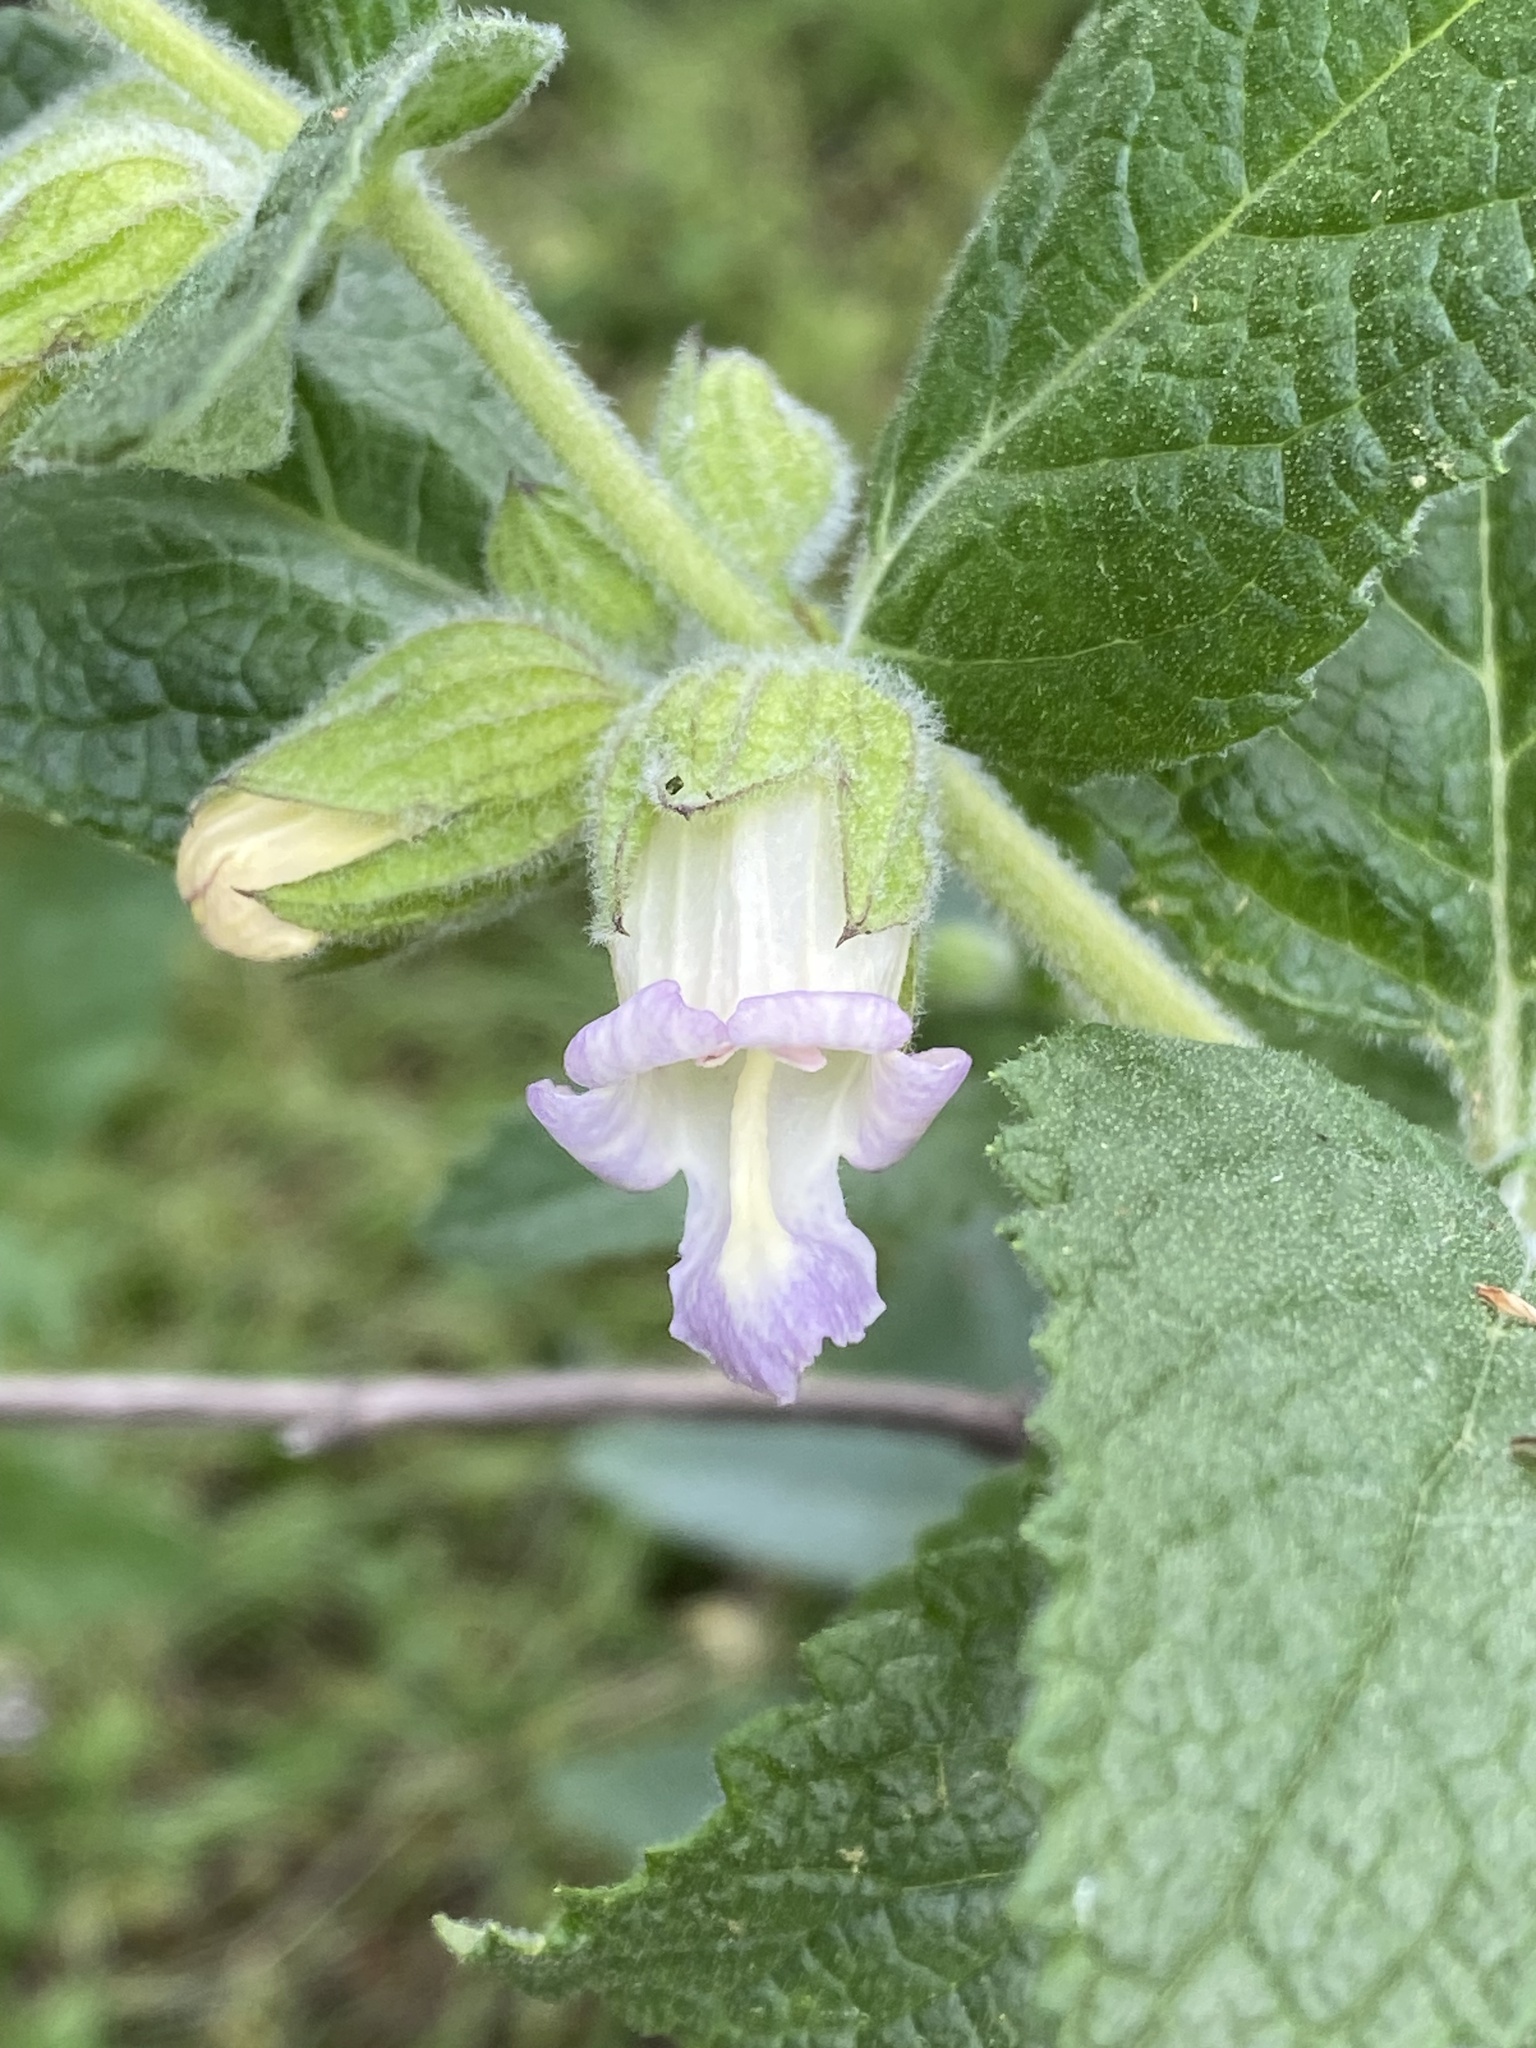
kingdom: Plantae
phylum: Tracheophyta
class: Magnoliopsida
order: Lamiales
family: Lamiaceae
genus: Lepechinia
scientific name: Lepechinia calycina
